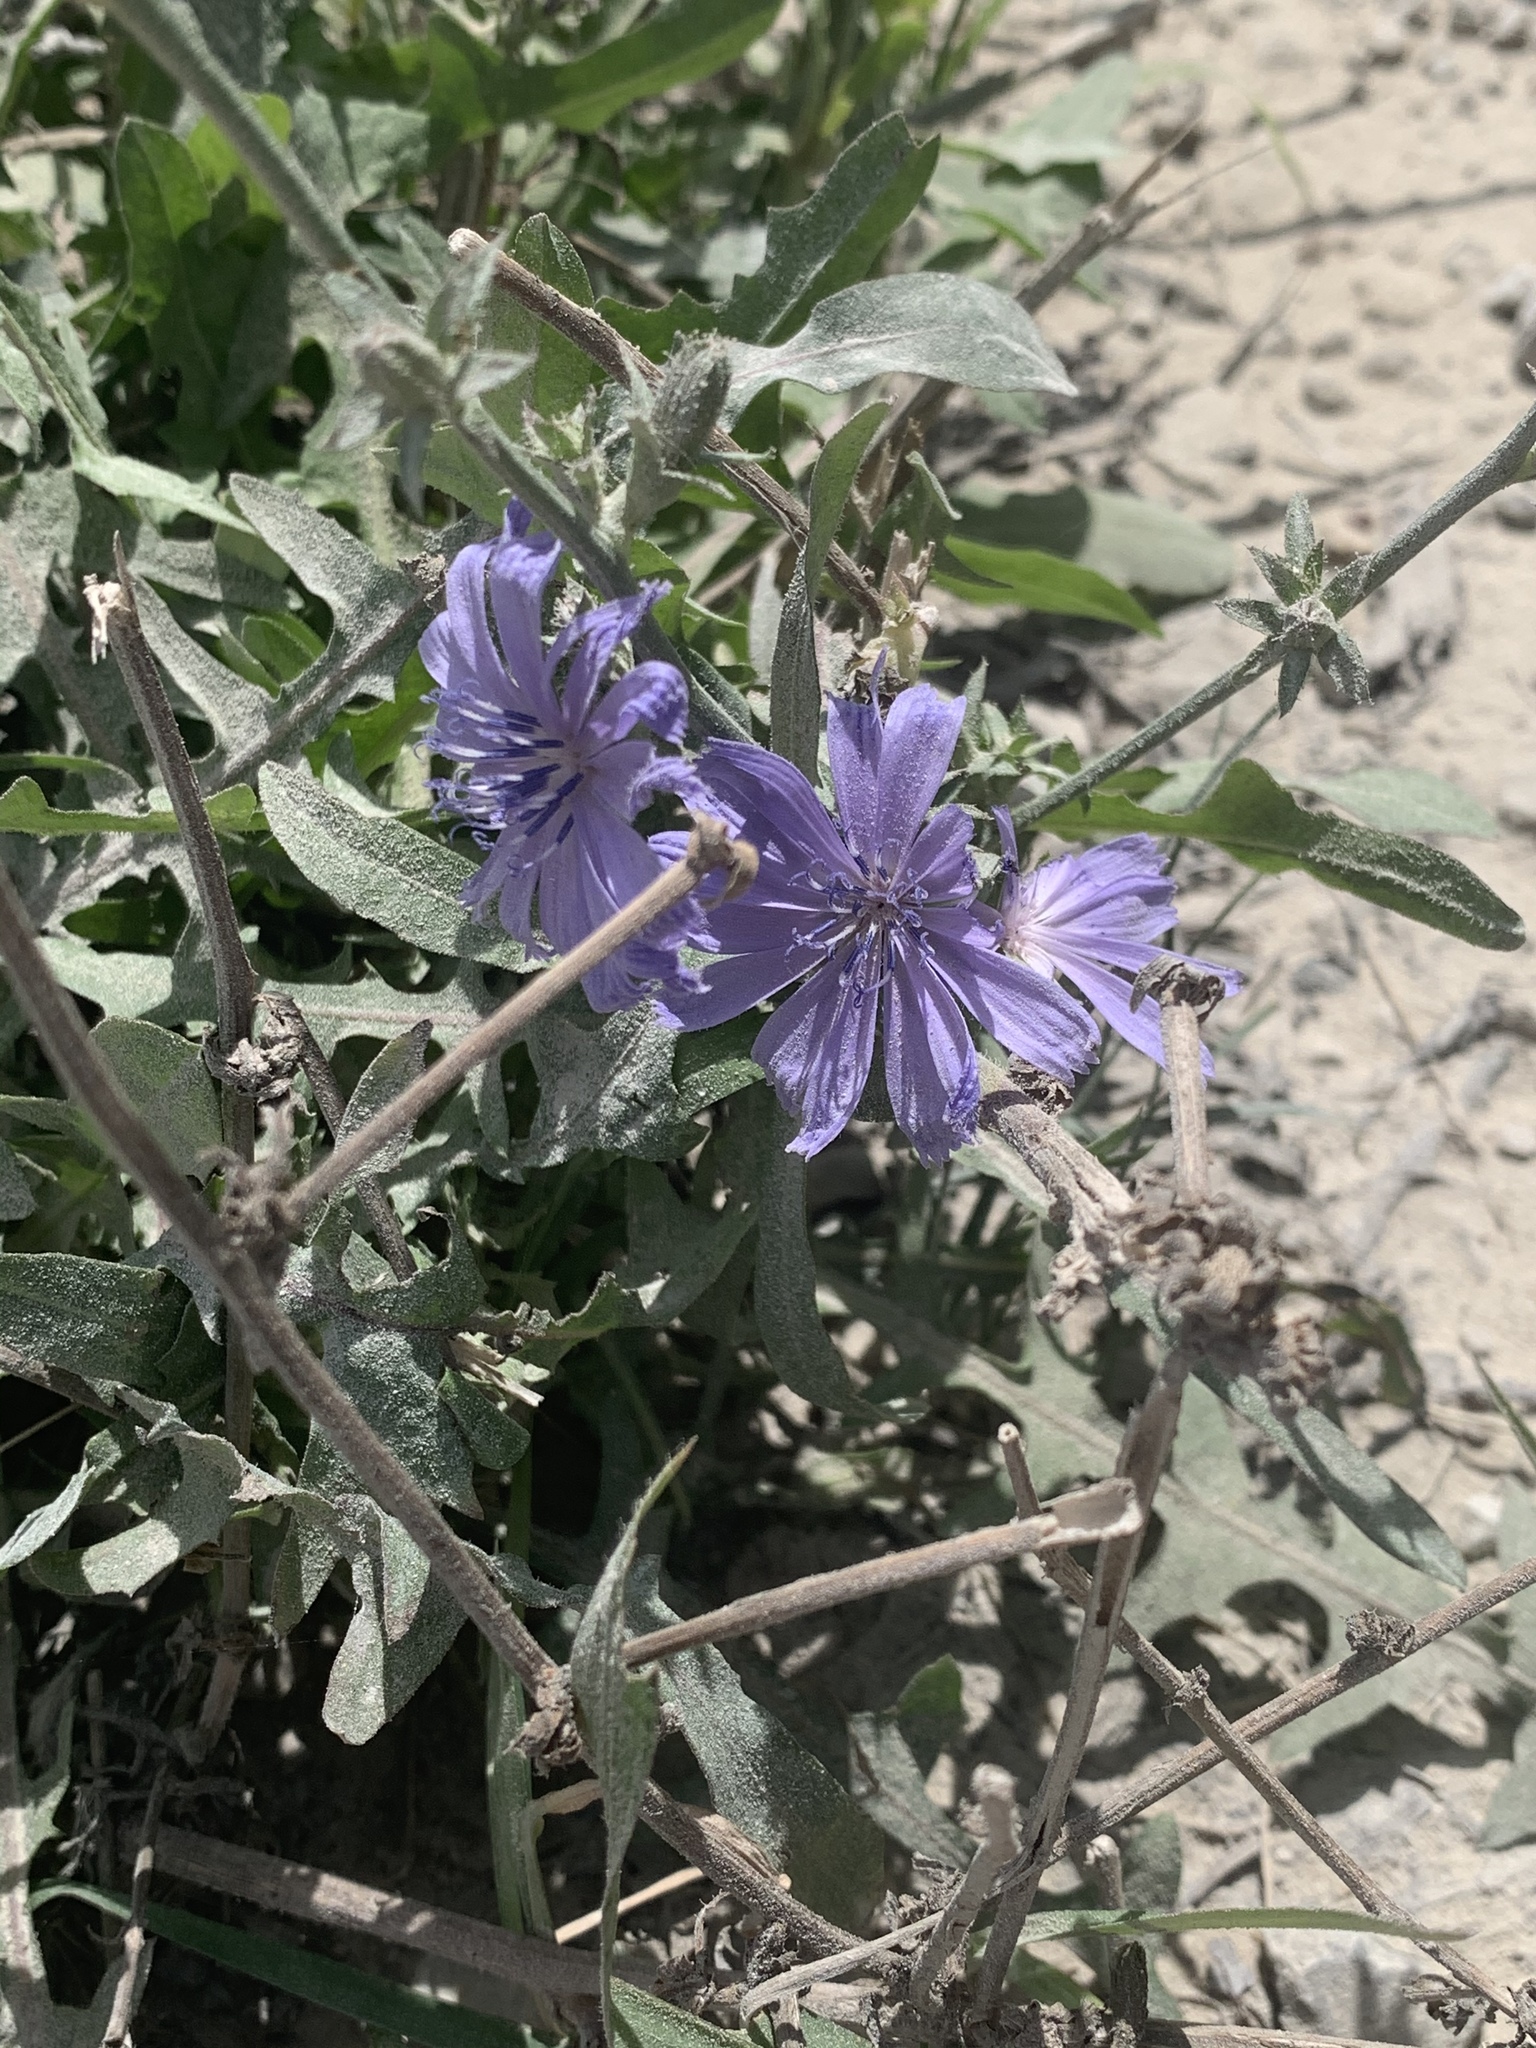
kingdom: Plantae
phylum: Tracheophyta
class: Magnoliopsida
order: Asterales
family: Asteraceae
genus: Cichorium
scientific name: Cichorium intybus
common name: Chicory
